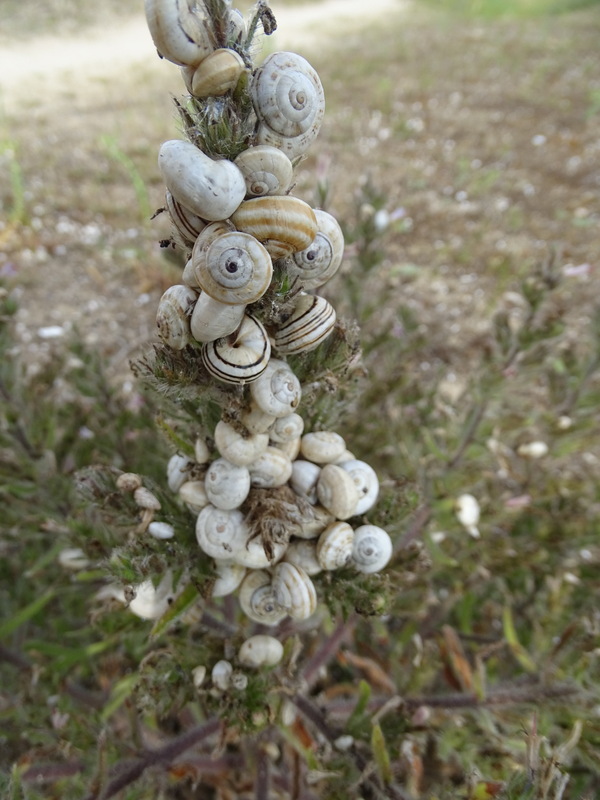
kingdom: Animalia
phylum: Mollusca
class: Gastropoda
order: Stylommatophora
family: Helicidae
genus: Theba
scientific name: Theba pisana
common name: White snail
